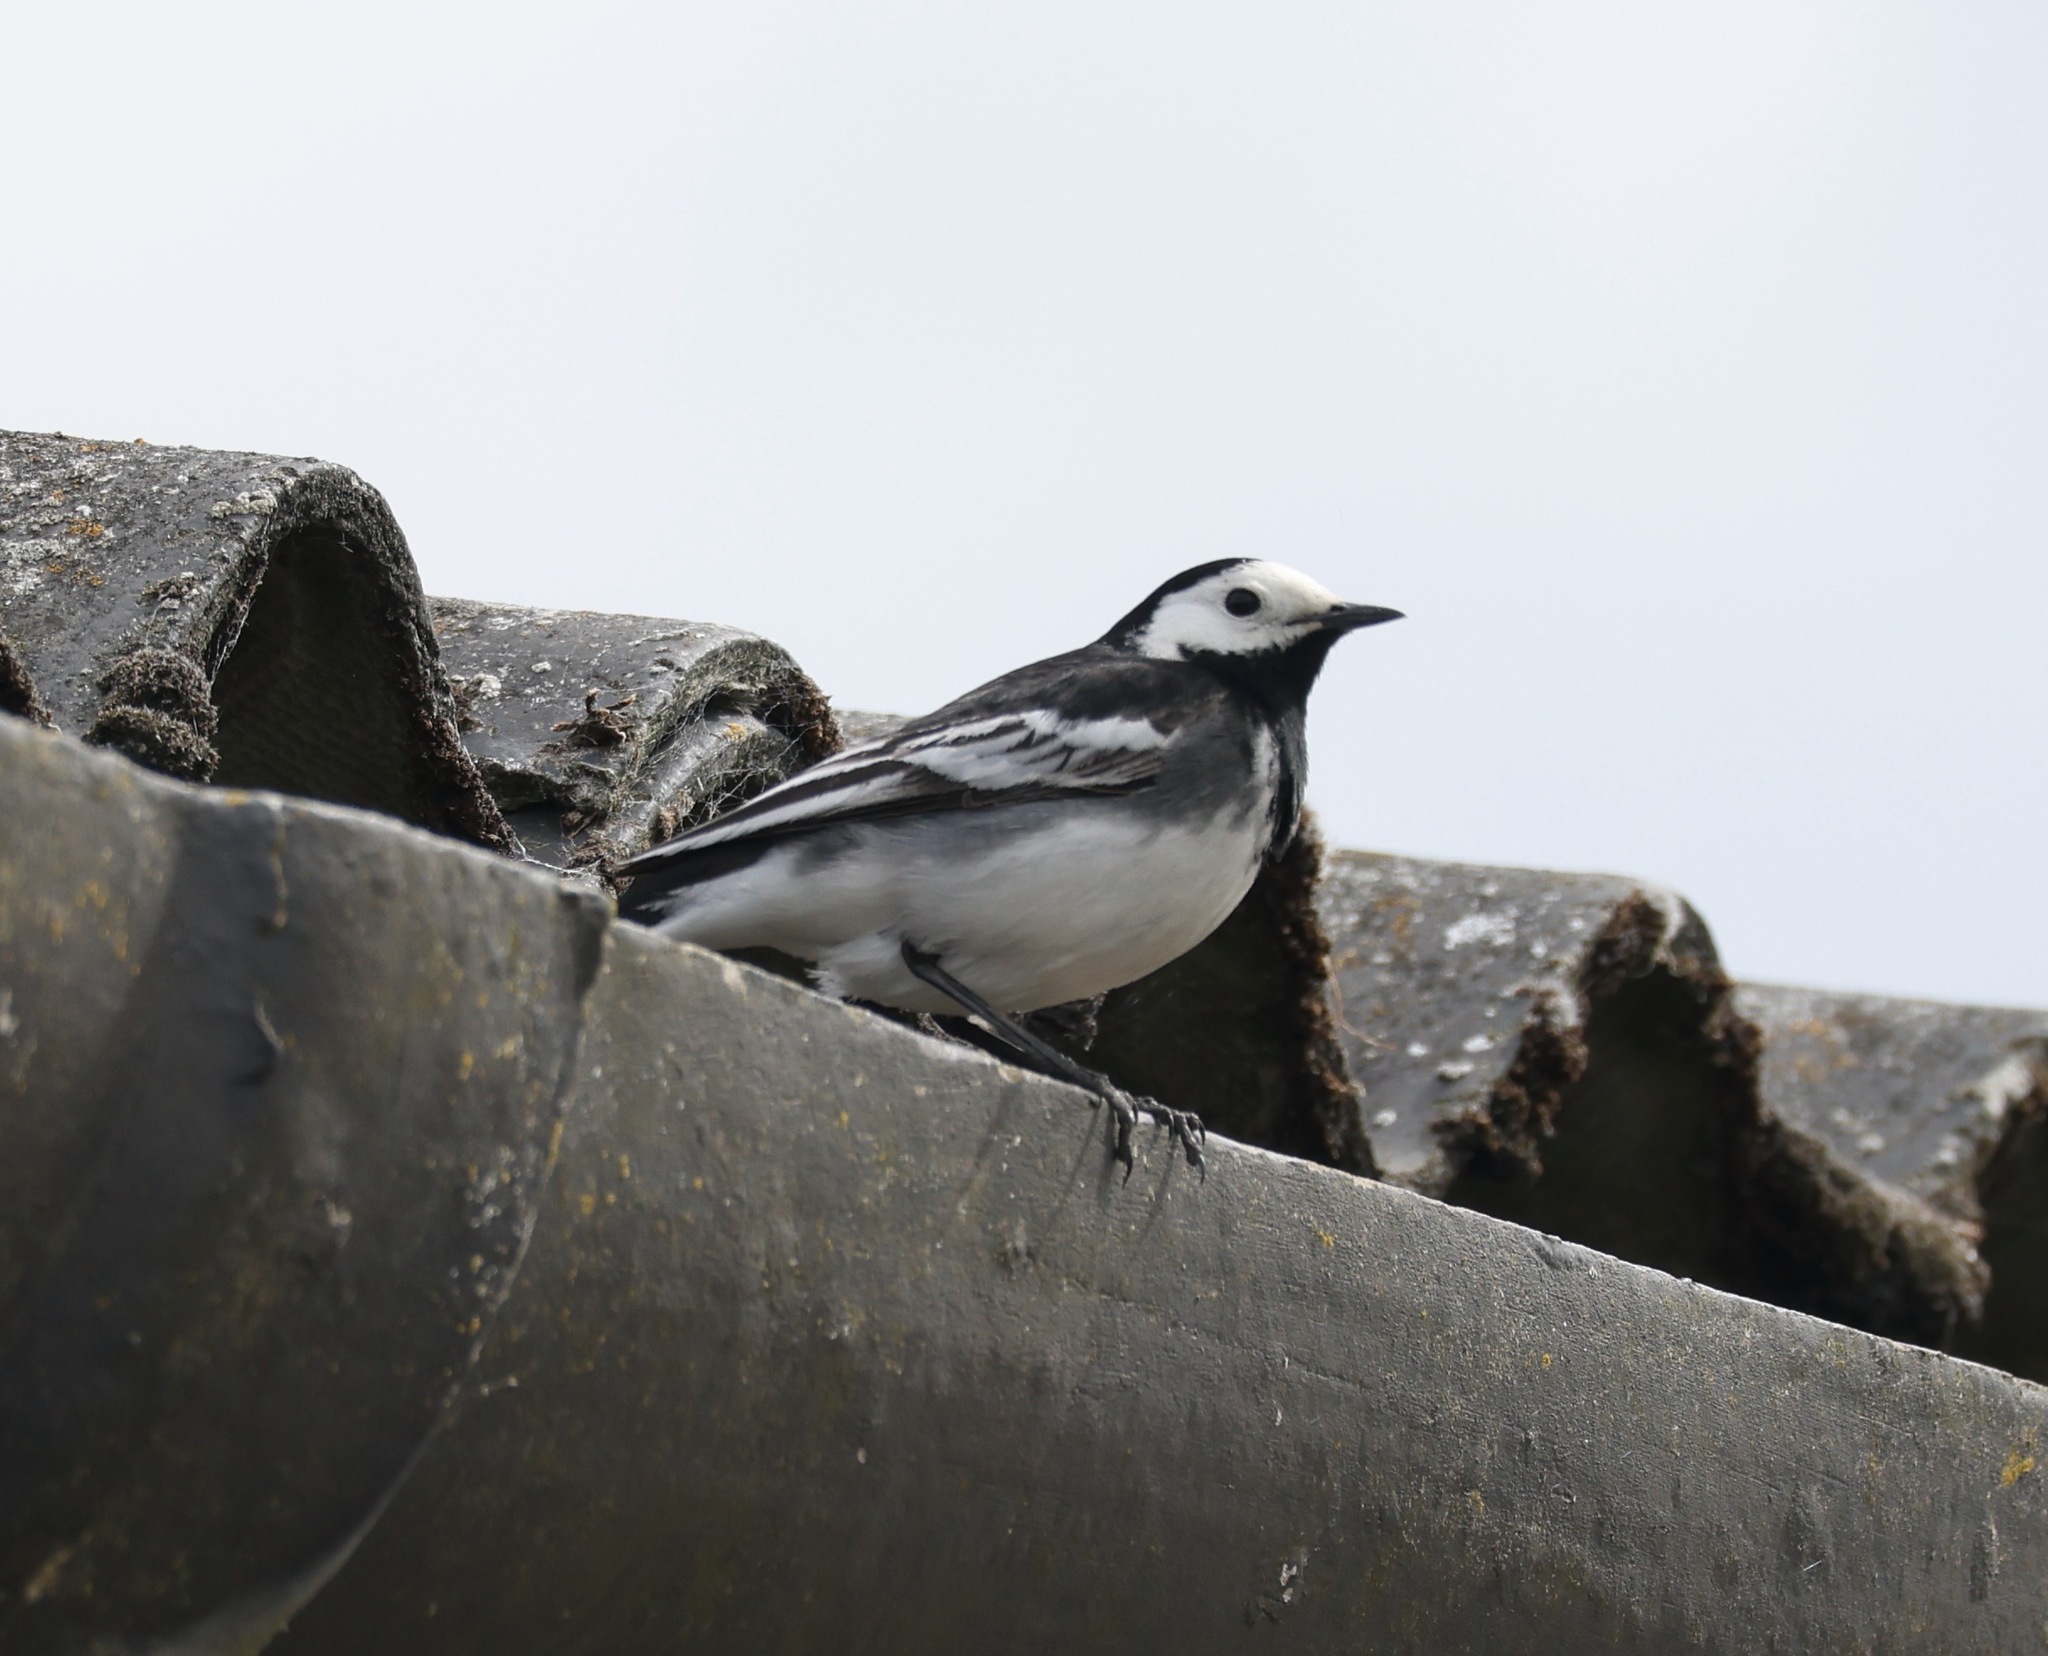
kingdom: Animalia
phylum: Chordata
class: Aves
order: Passeriformes
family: Motacillidae
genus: Motacilla
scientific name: Motacilla alba
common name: White wagtail
